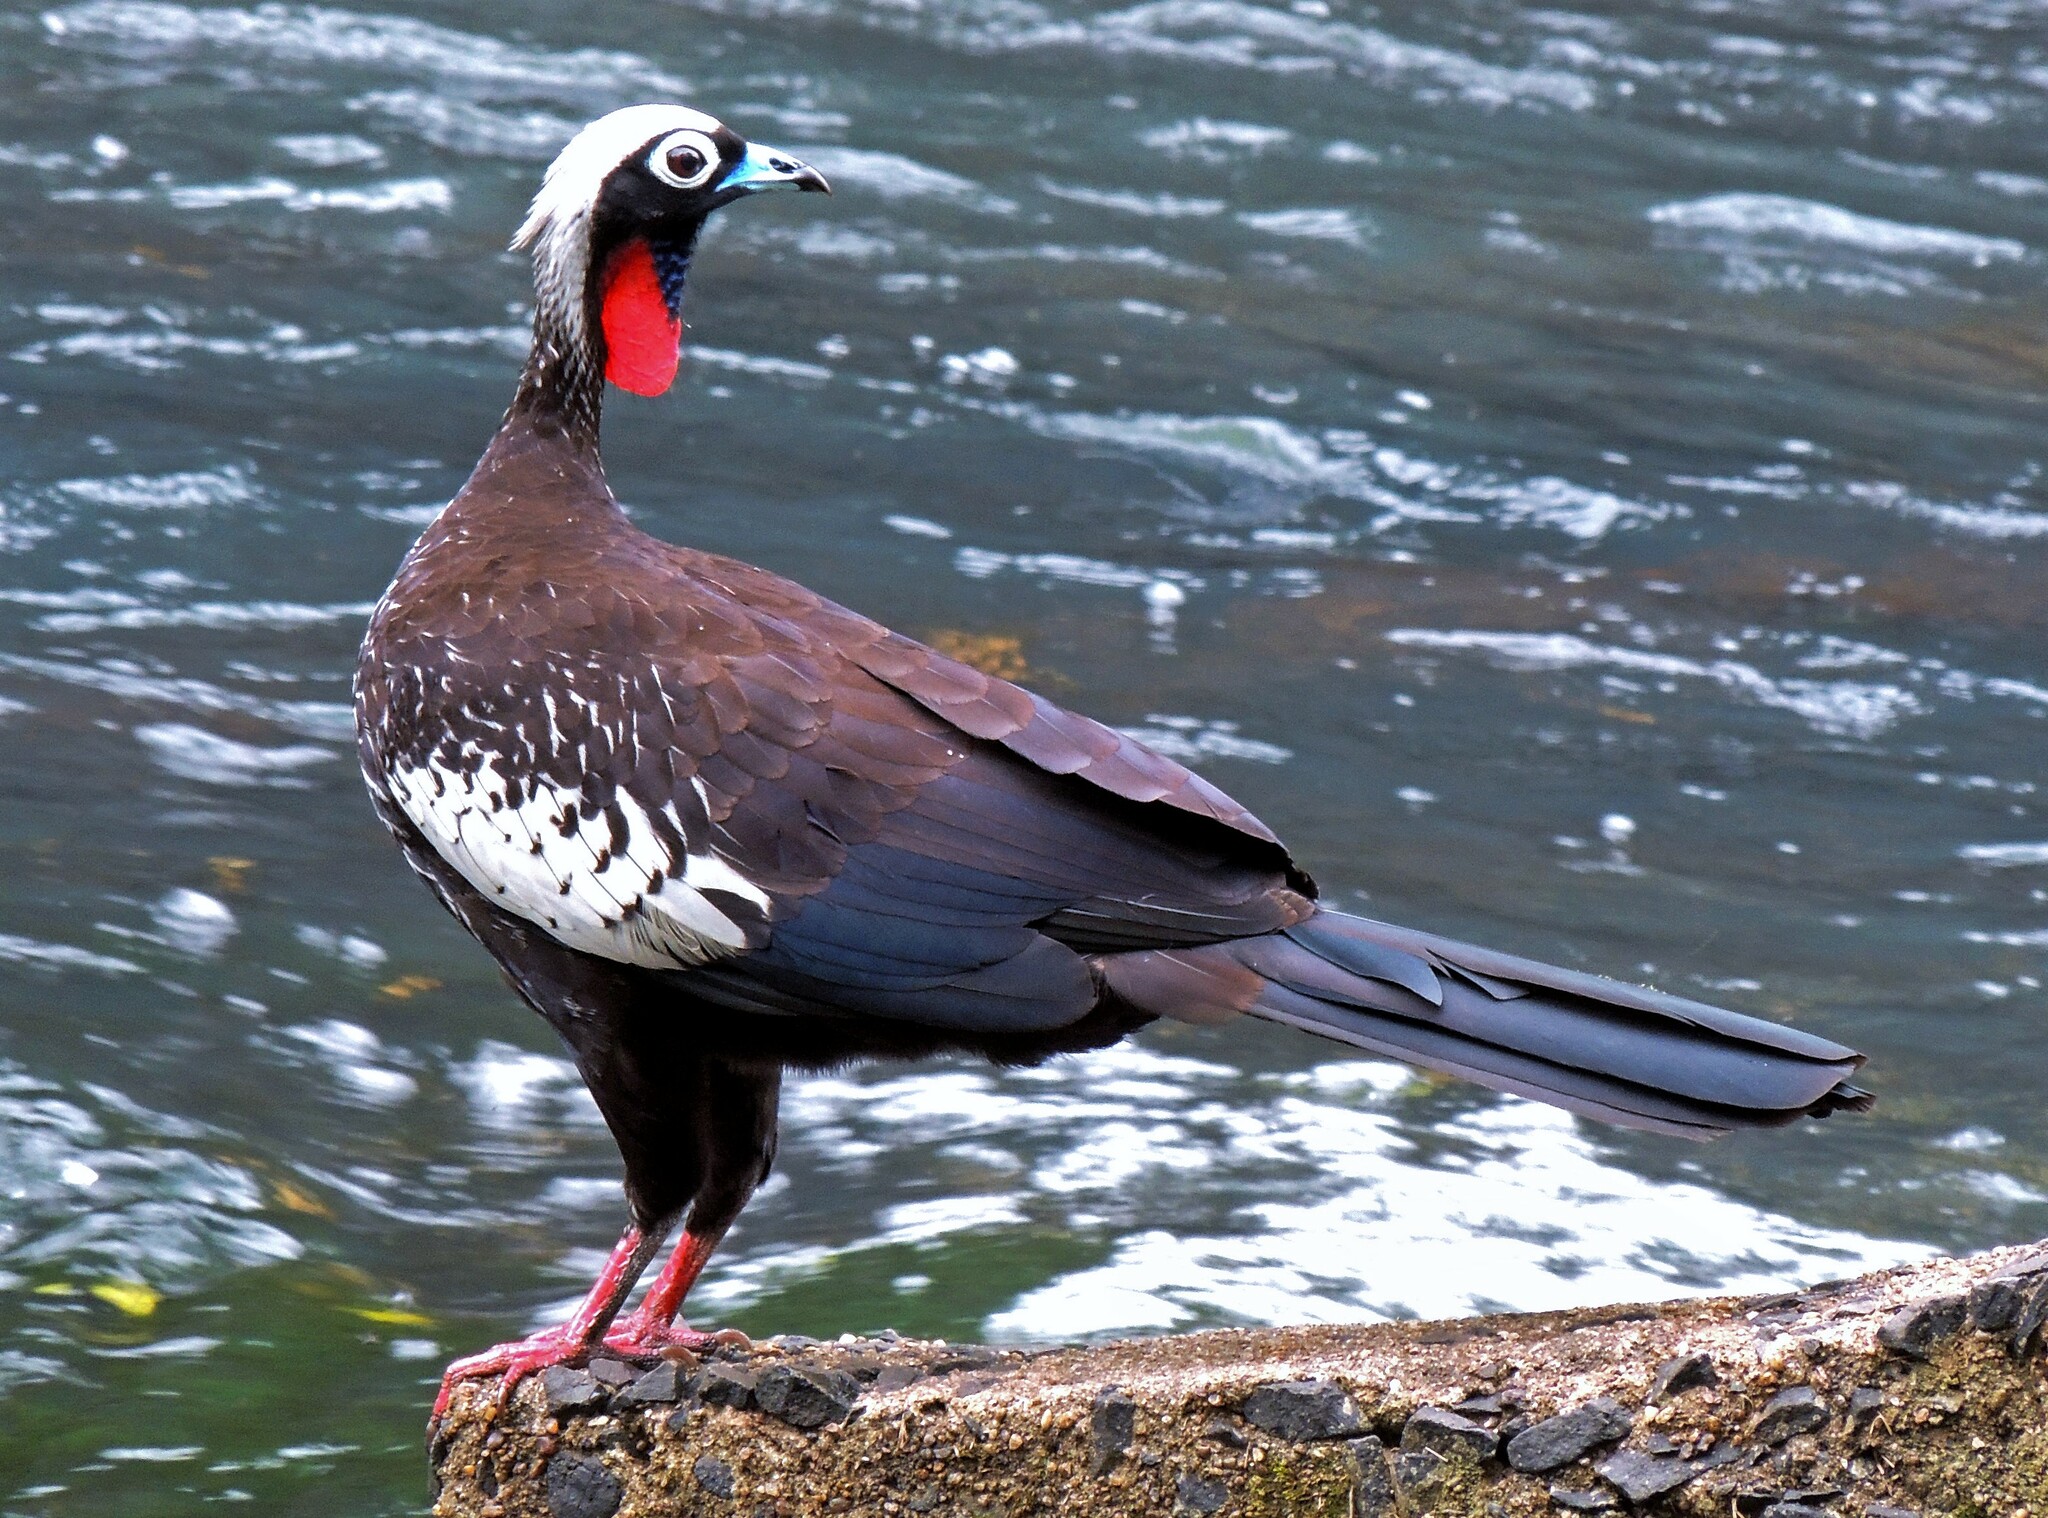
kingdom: Animalia
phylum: Chordata
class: Aves
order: Galliformes
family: Cracidae
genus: Pipile
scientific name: Pipile jacutinga
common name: Black-fronted piping-guan
